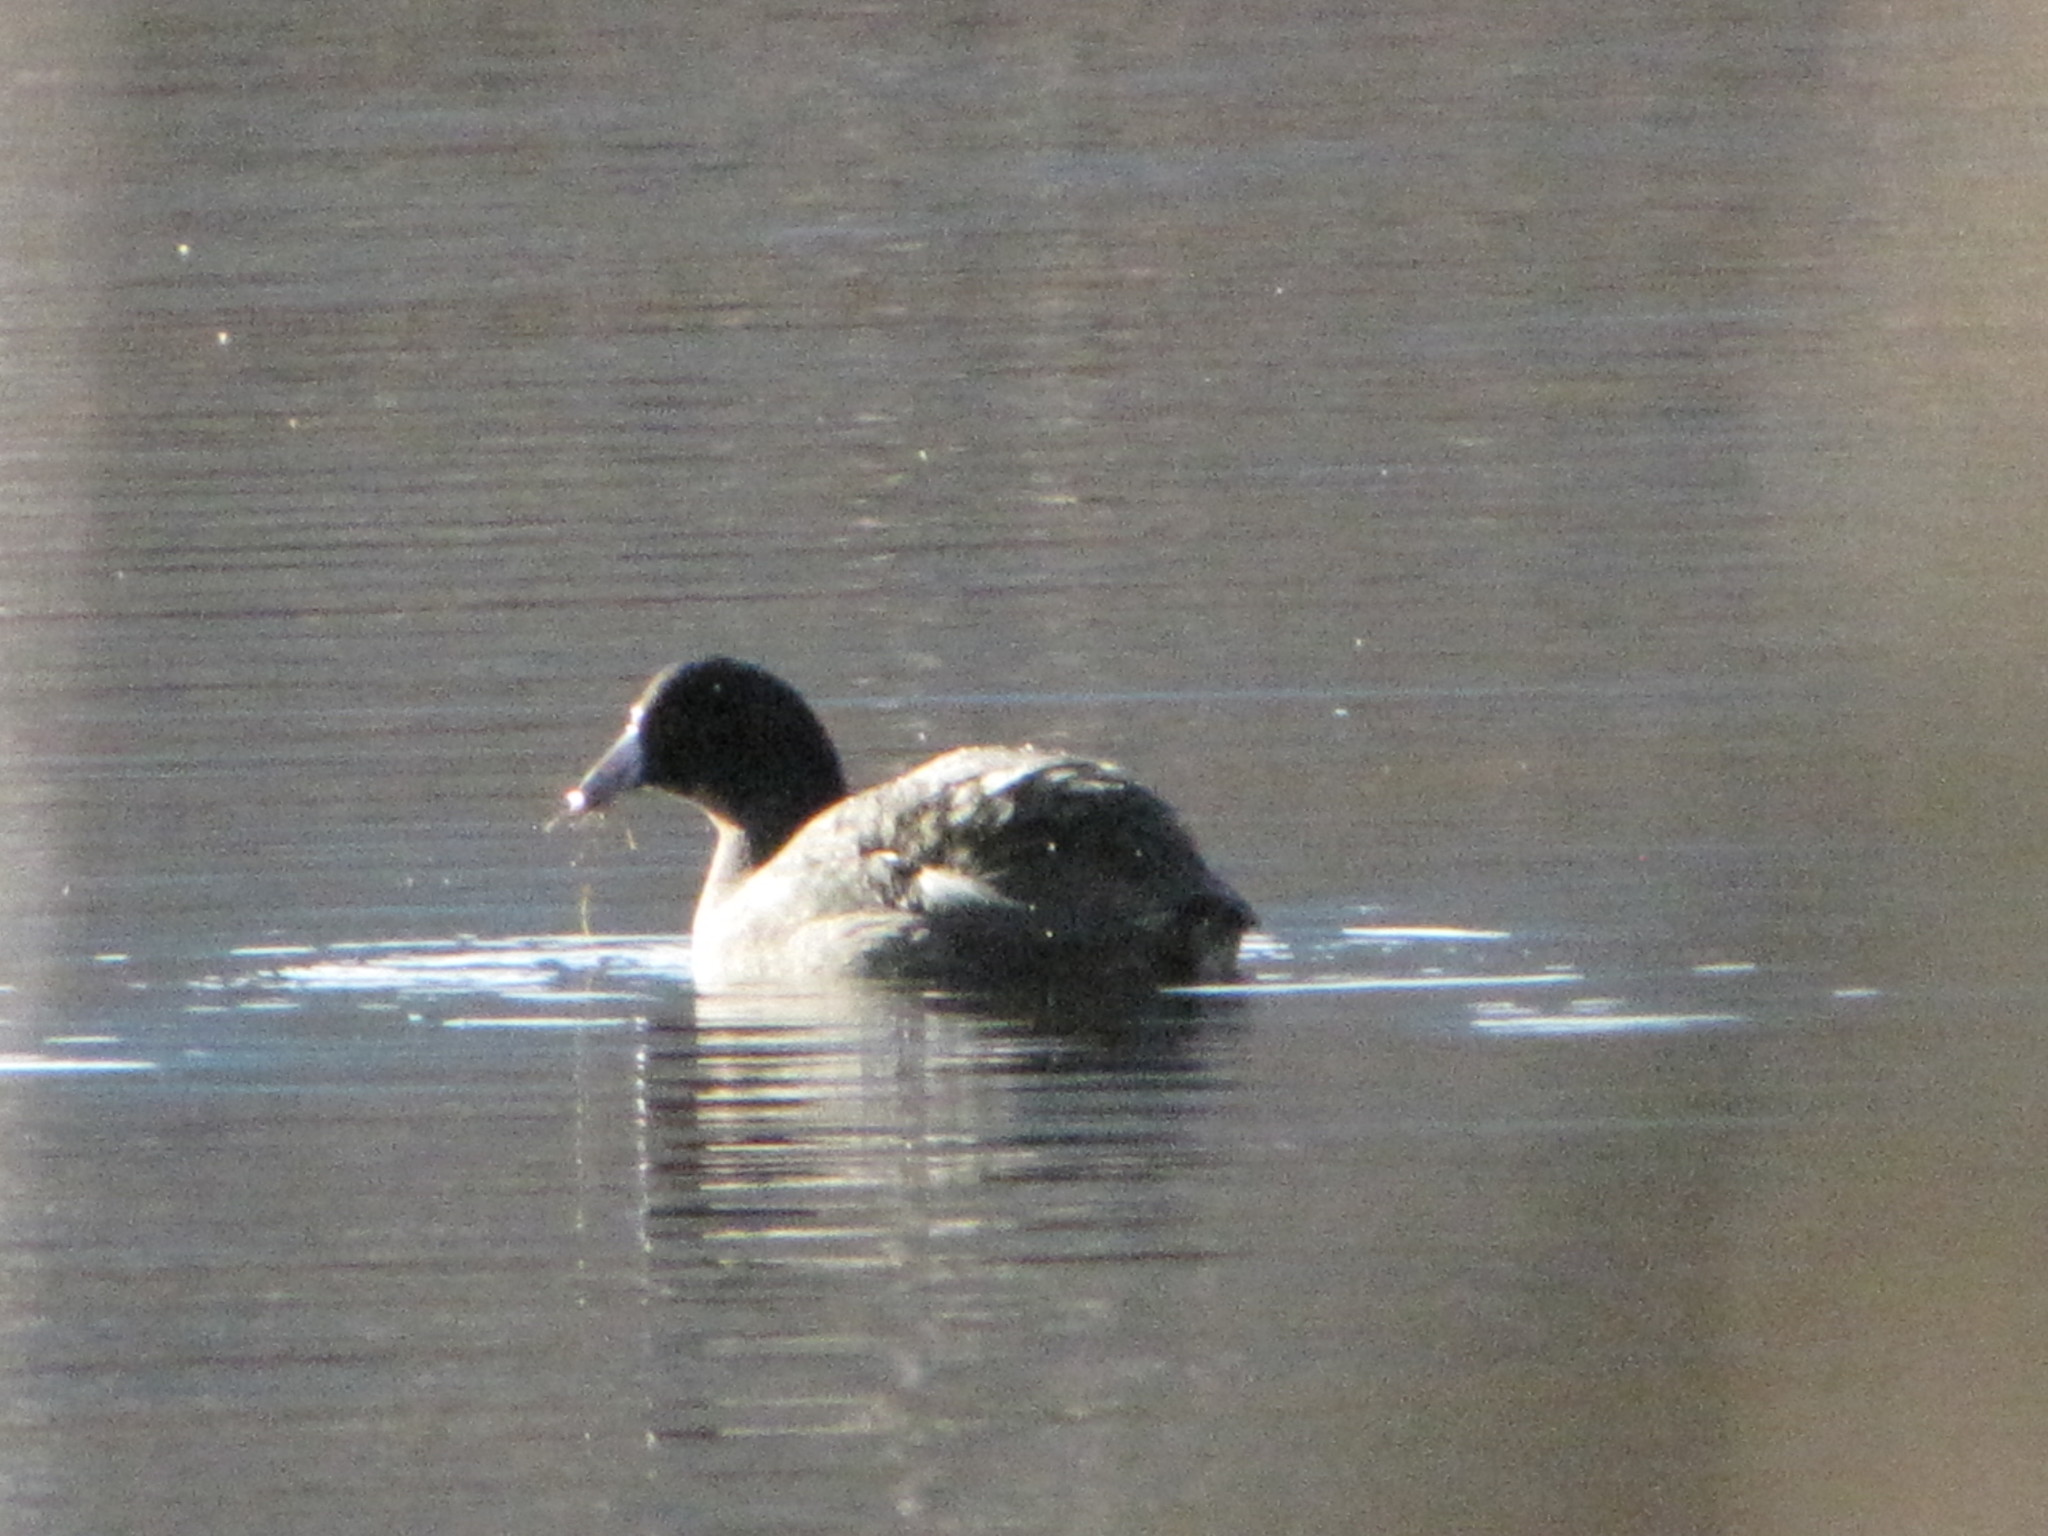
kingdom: Animalia
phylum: Chordata
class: Aves
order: Gruiformes
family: Rallidae
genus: Fulica
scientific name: Fulica americana
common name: American coot
